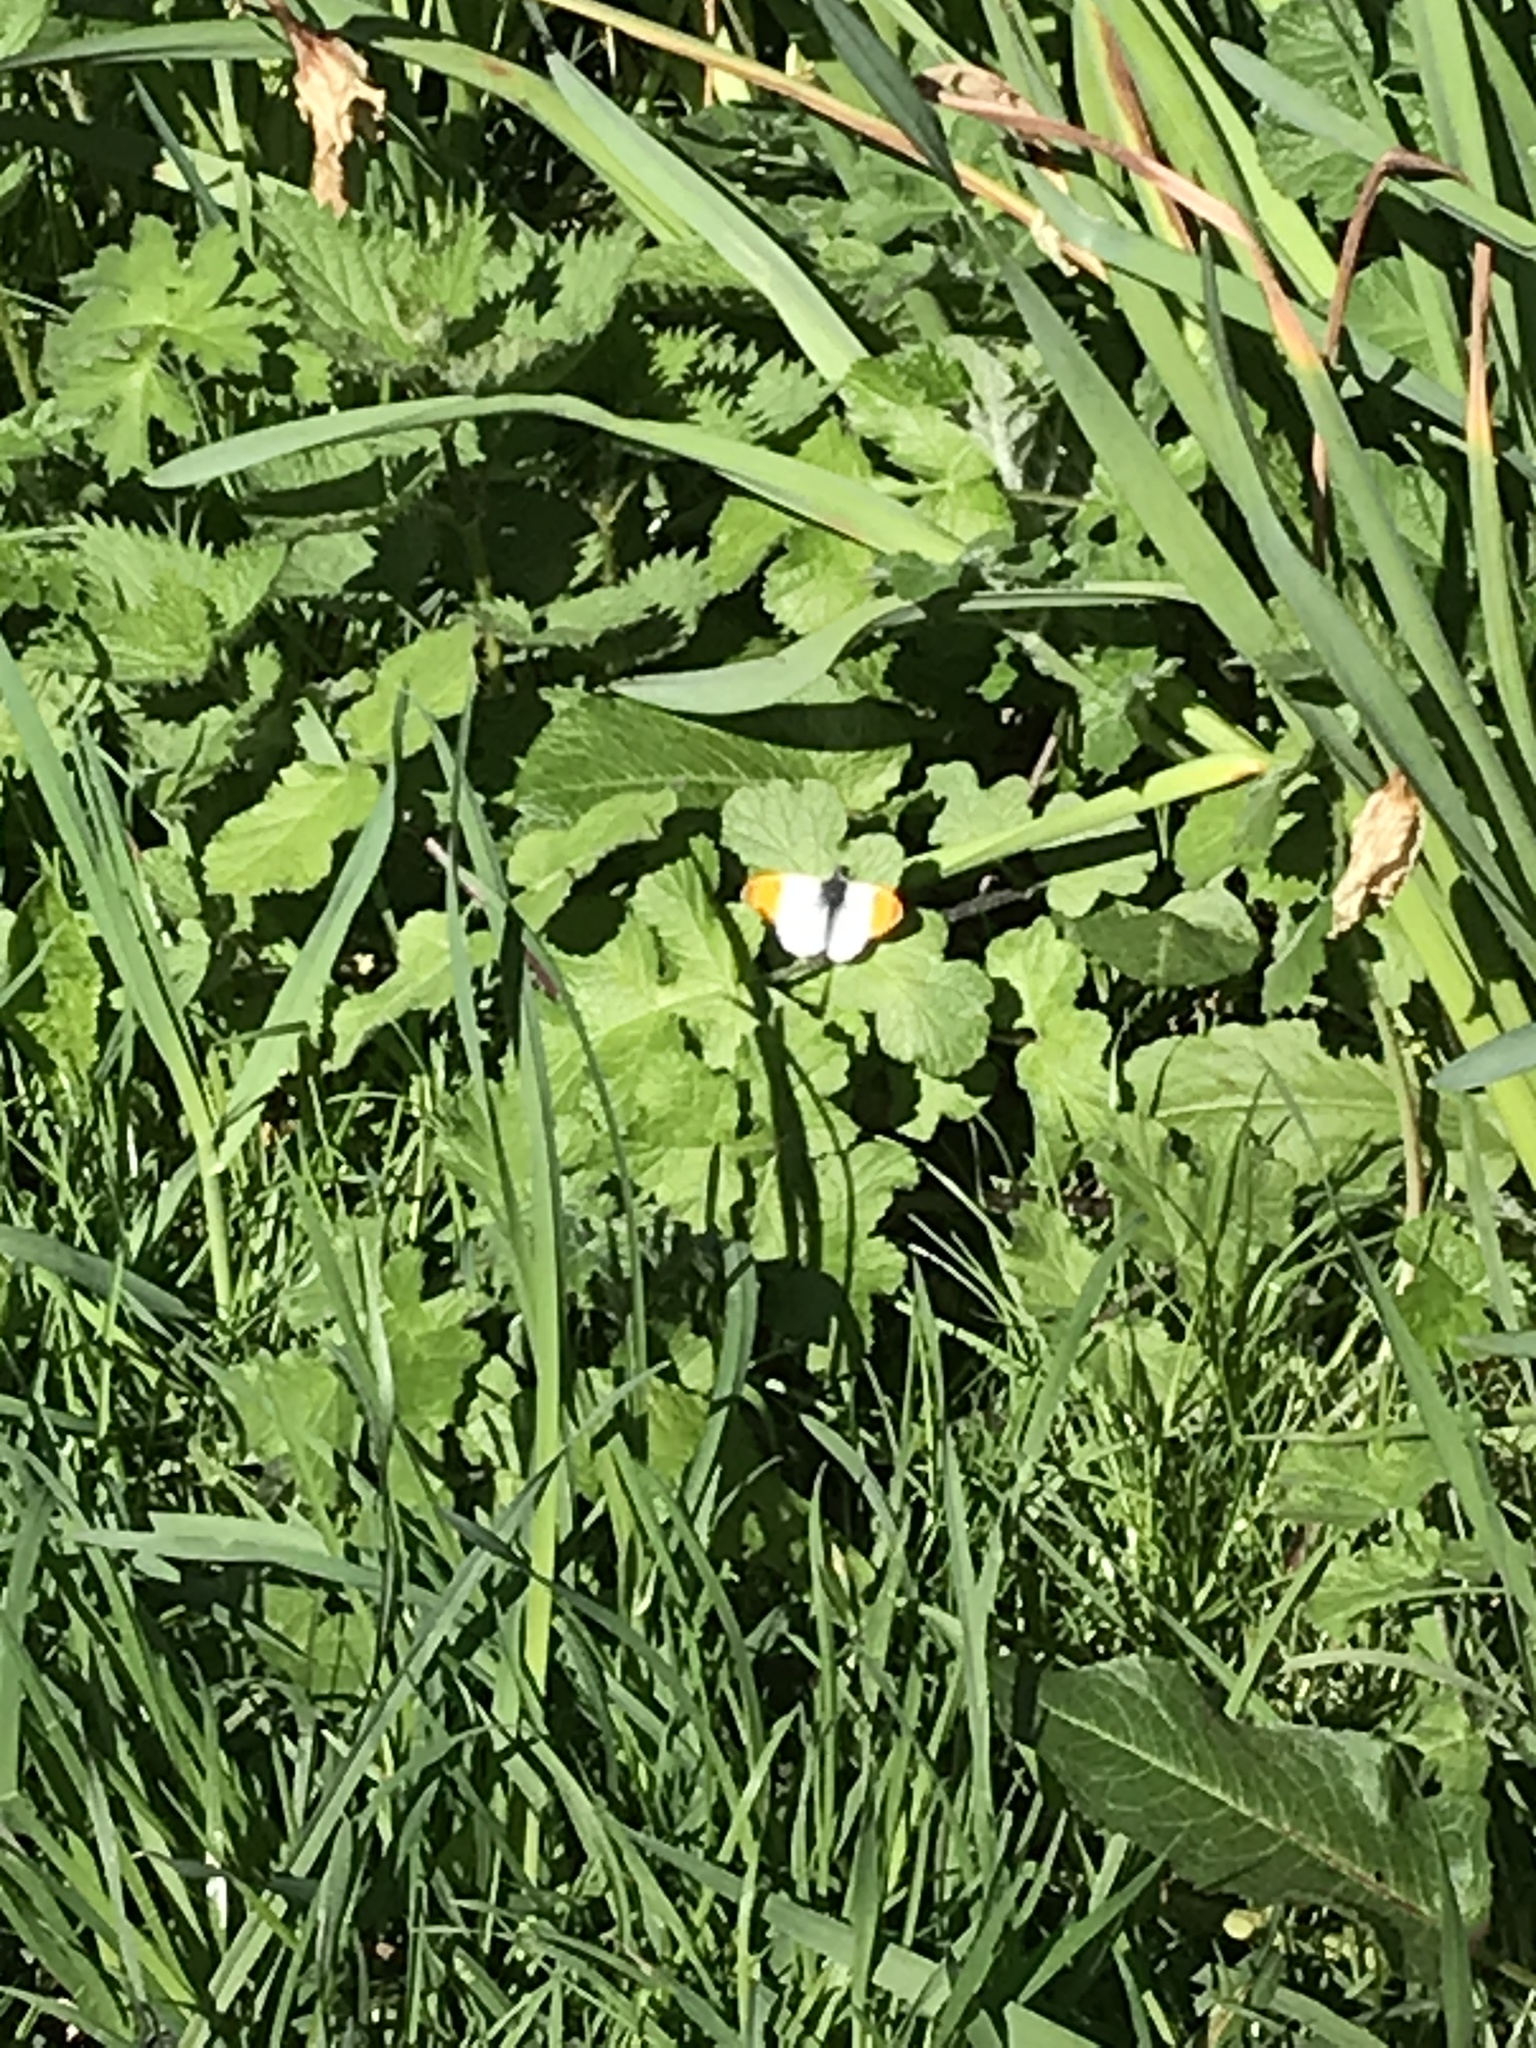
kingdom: Animalia
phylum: Arthropoda
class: Insecta
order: Lepidoptera
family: Pieridae
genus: Anthocharis
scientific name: Anthocharis cardamines
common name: Orange-tip
